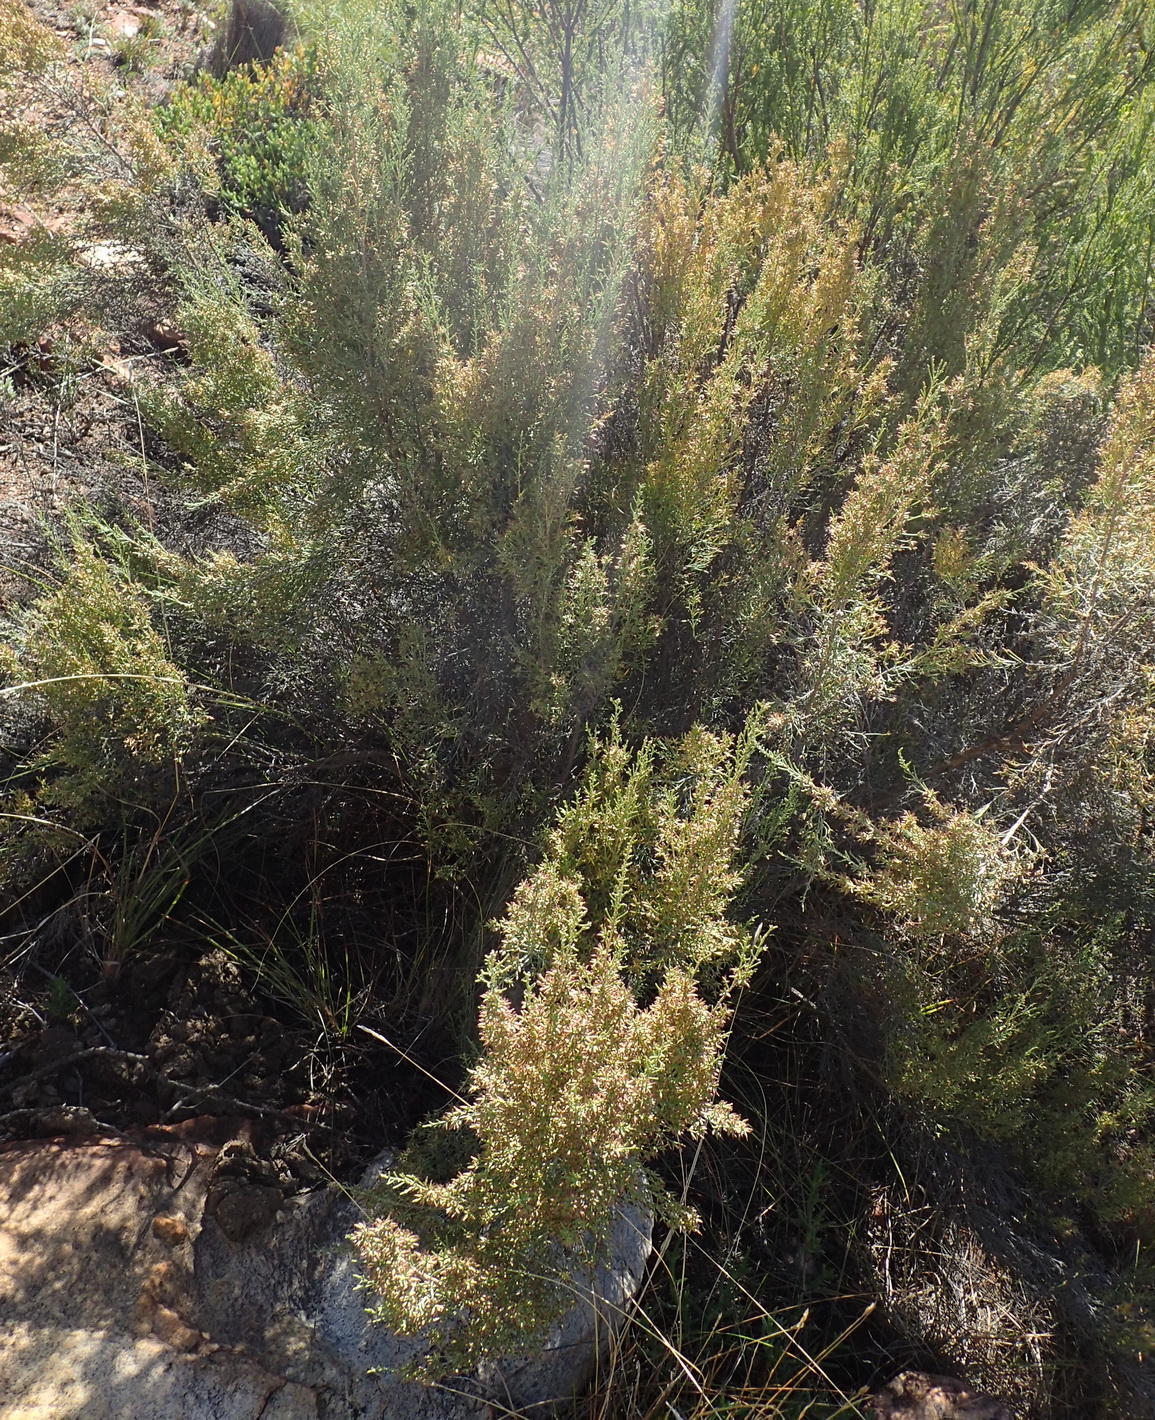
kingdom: Plantae
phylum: Tracheophyta
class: Magnoliopsida
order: Asterales
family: Asteraceae
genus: Dicerothamnus
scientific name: Dicerothamnus rhinocerotis
